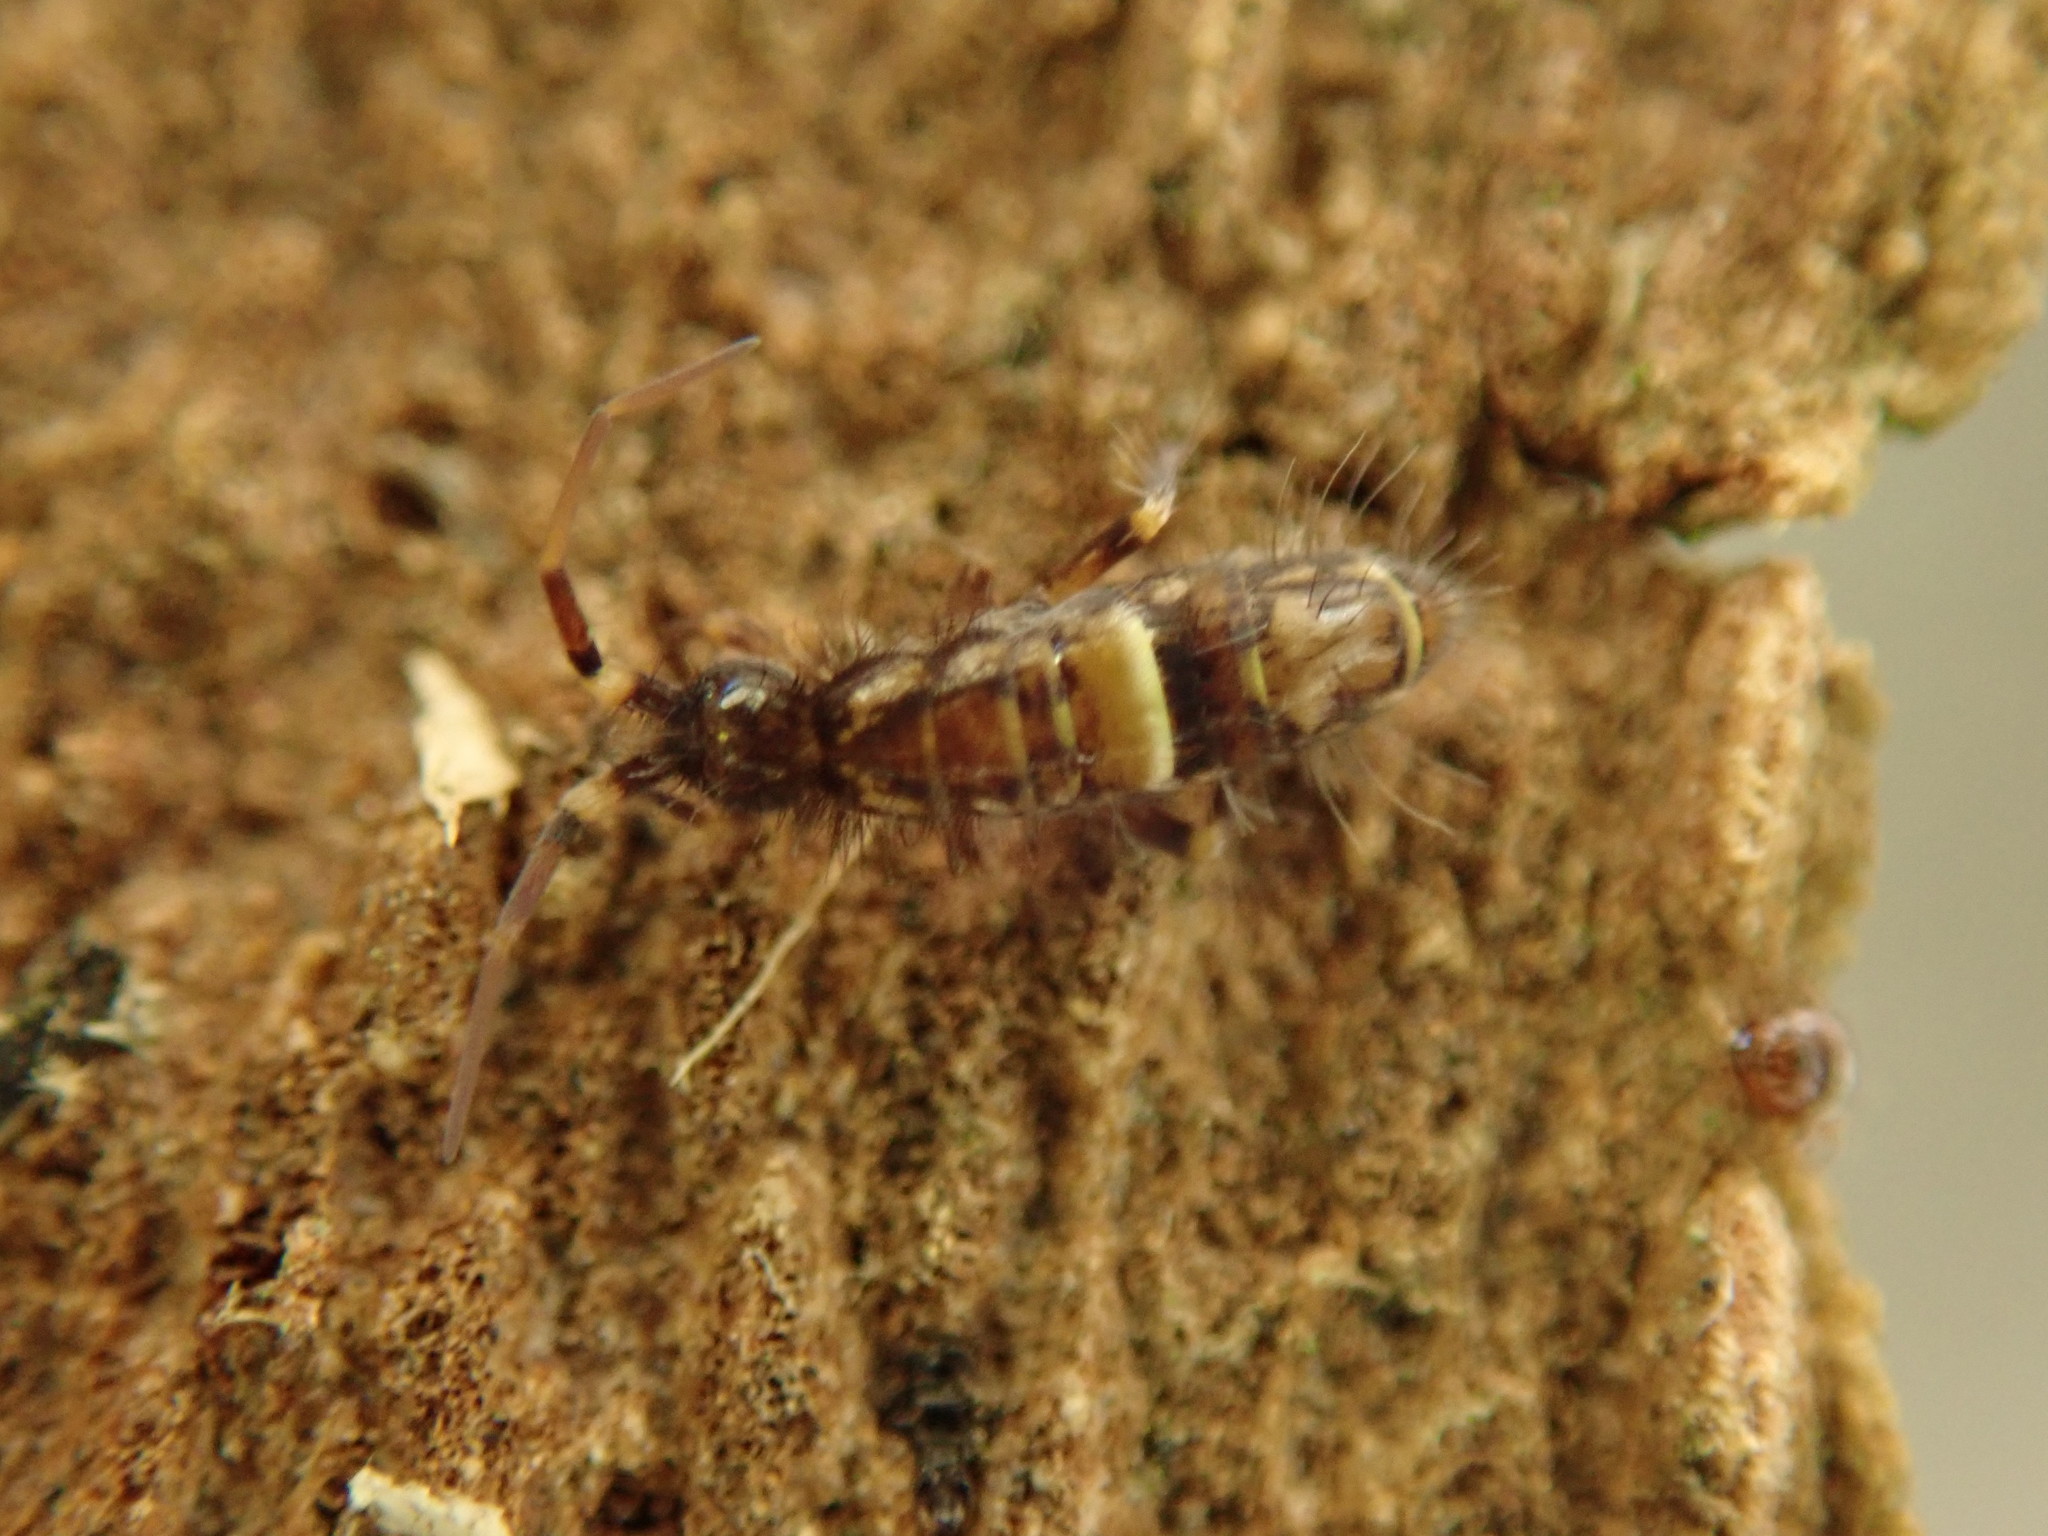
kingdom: Animalia
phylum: Arthropoda
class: Collembola
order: Entomobryomorpha
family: Orchesellidae
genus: Orchesella
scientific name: Orchesella cincta
